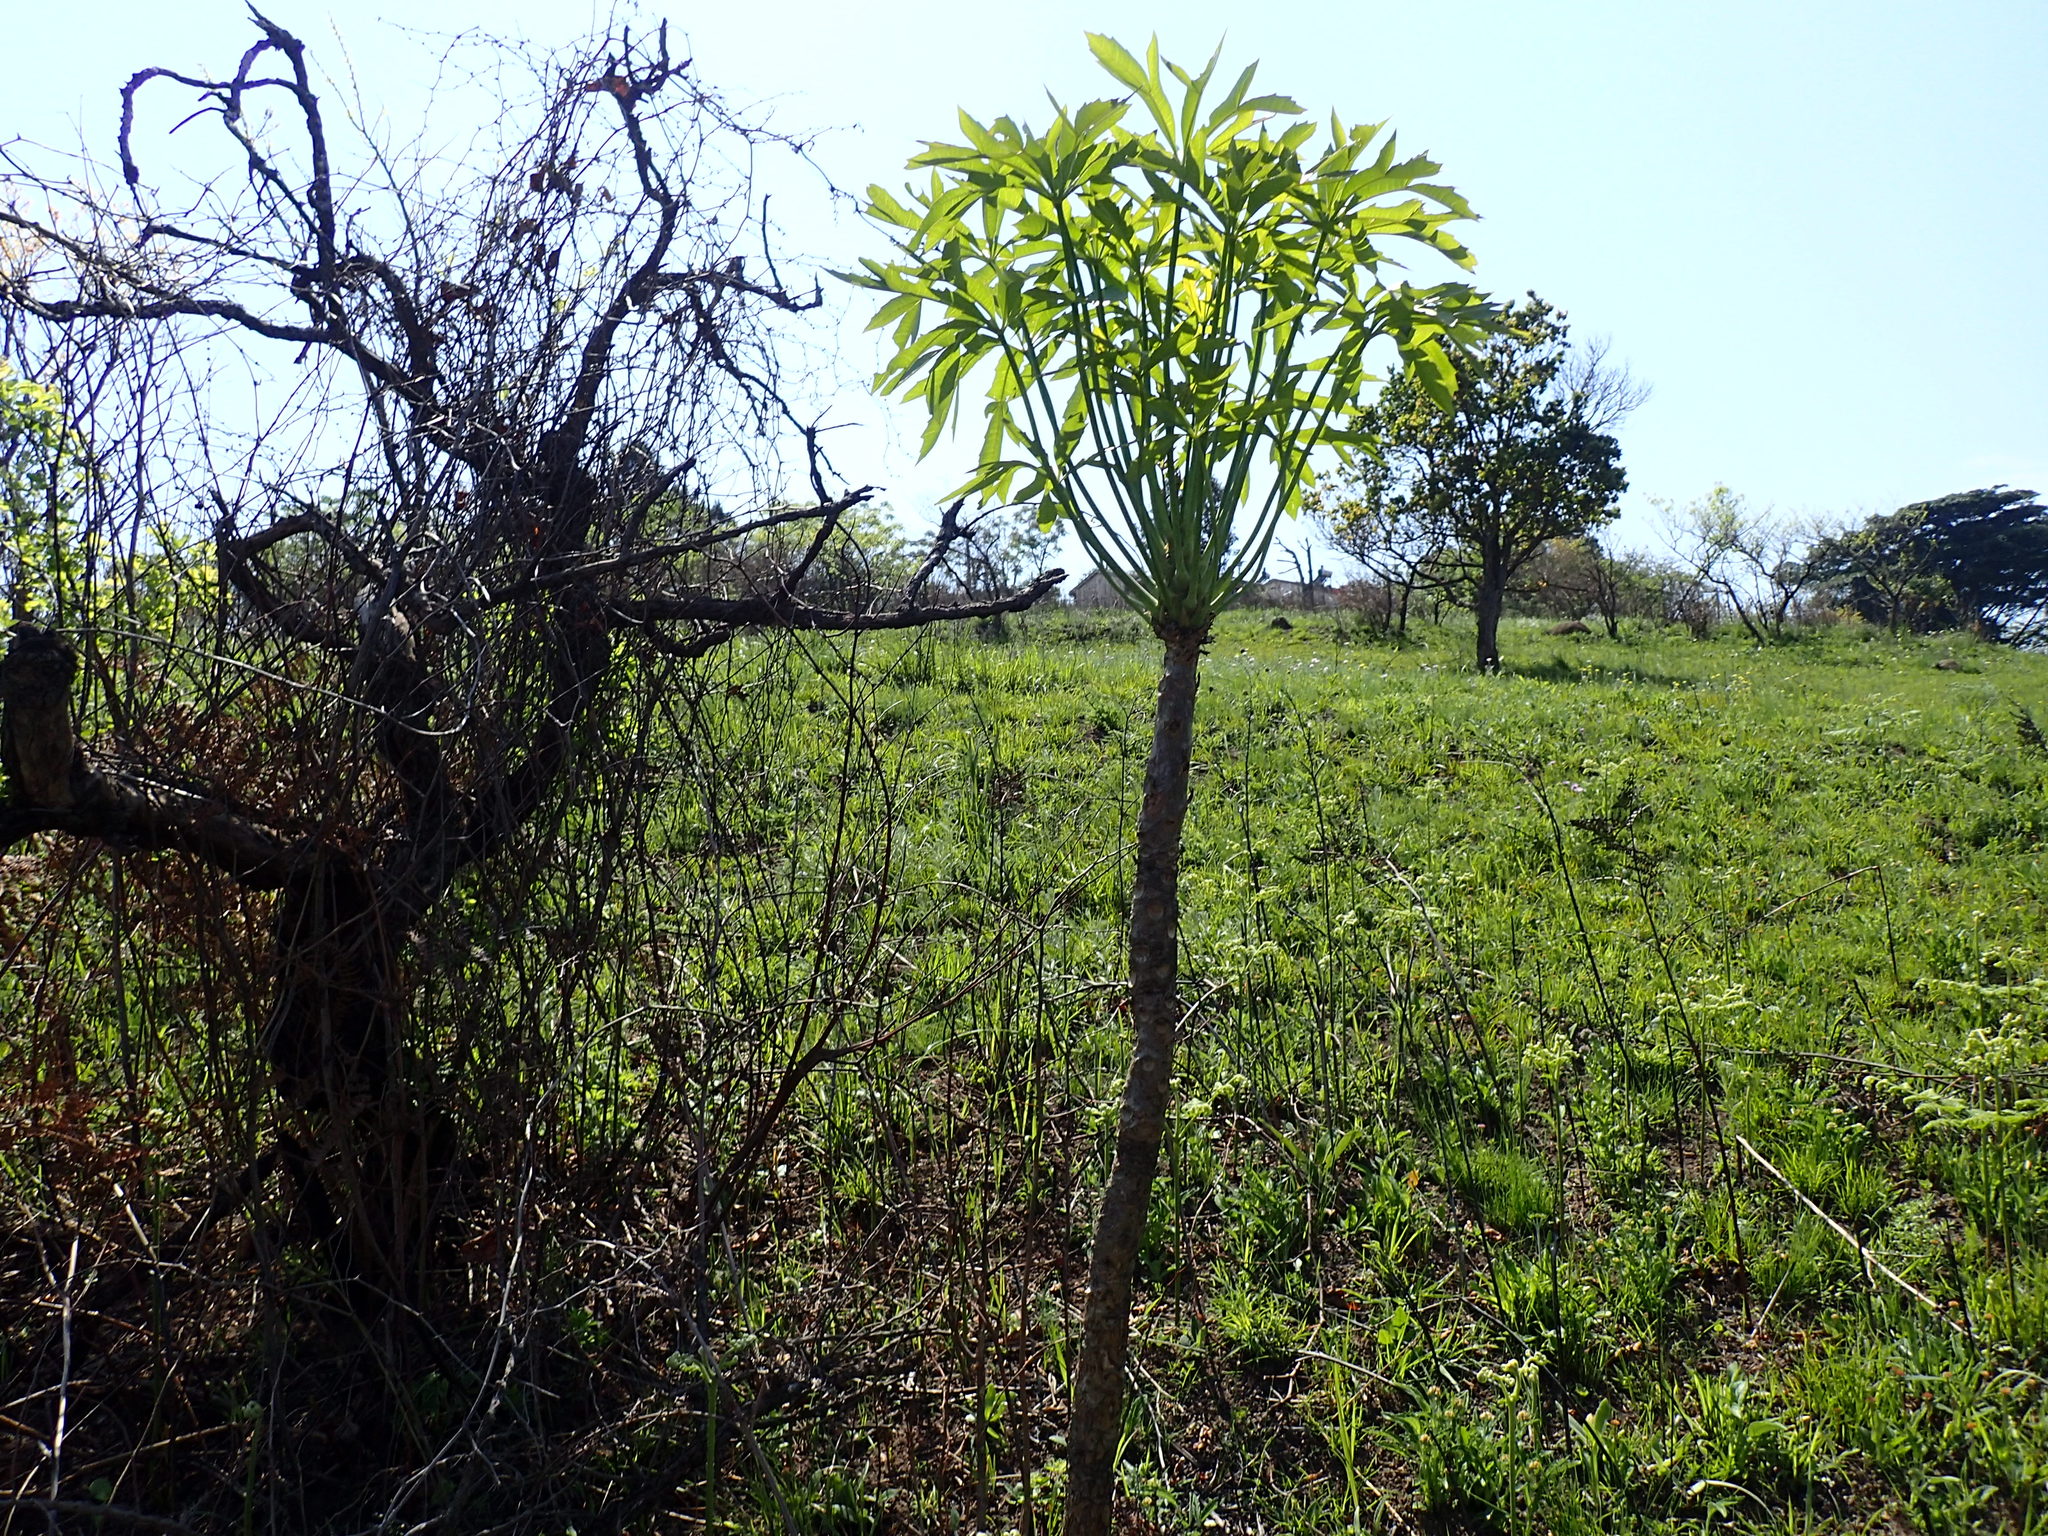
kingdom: Plantae
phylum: Tracheophyta
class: Magnoliopsida
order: Apiales
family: Araliaceae
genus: Cussonia
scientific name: Cussonia spicata
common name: Common cabbagetree
